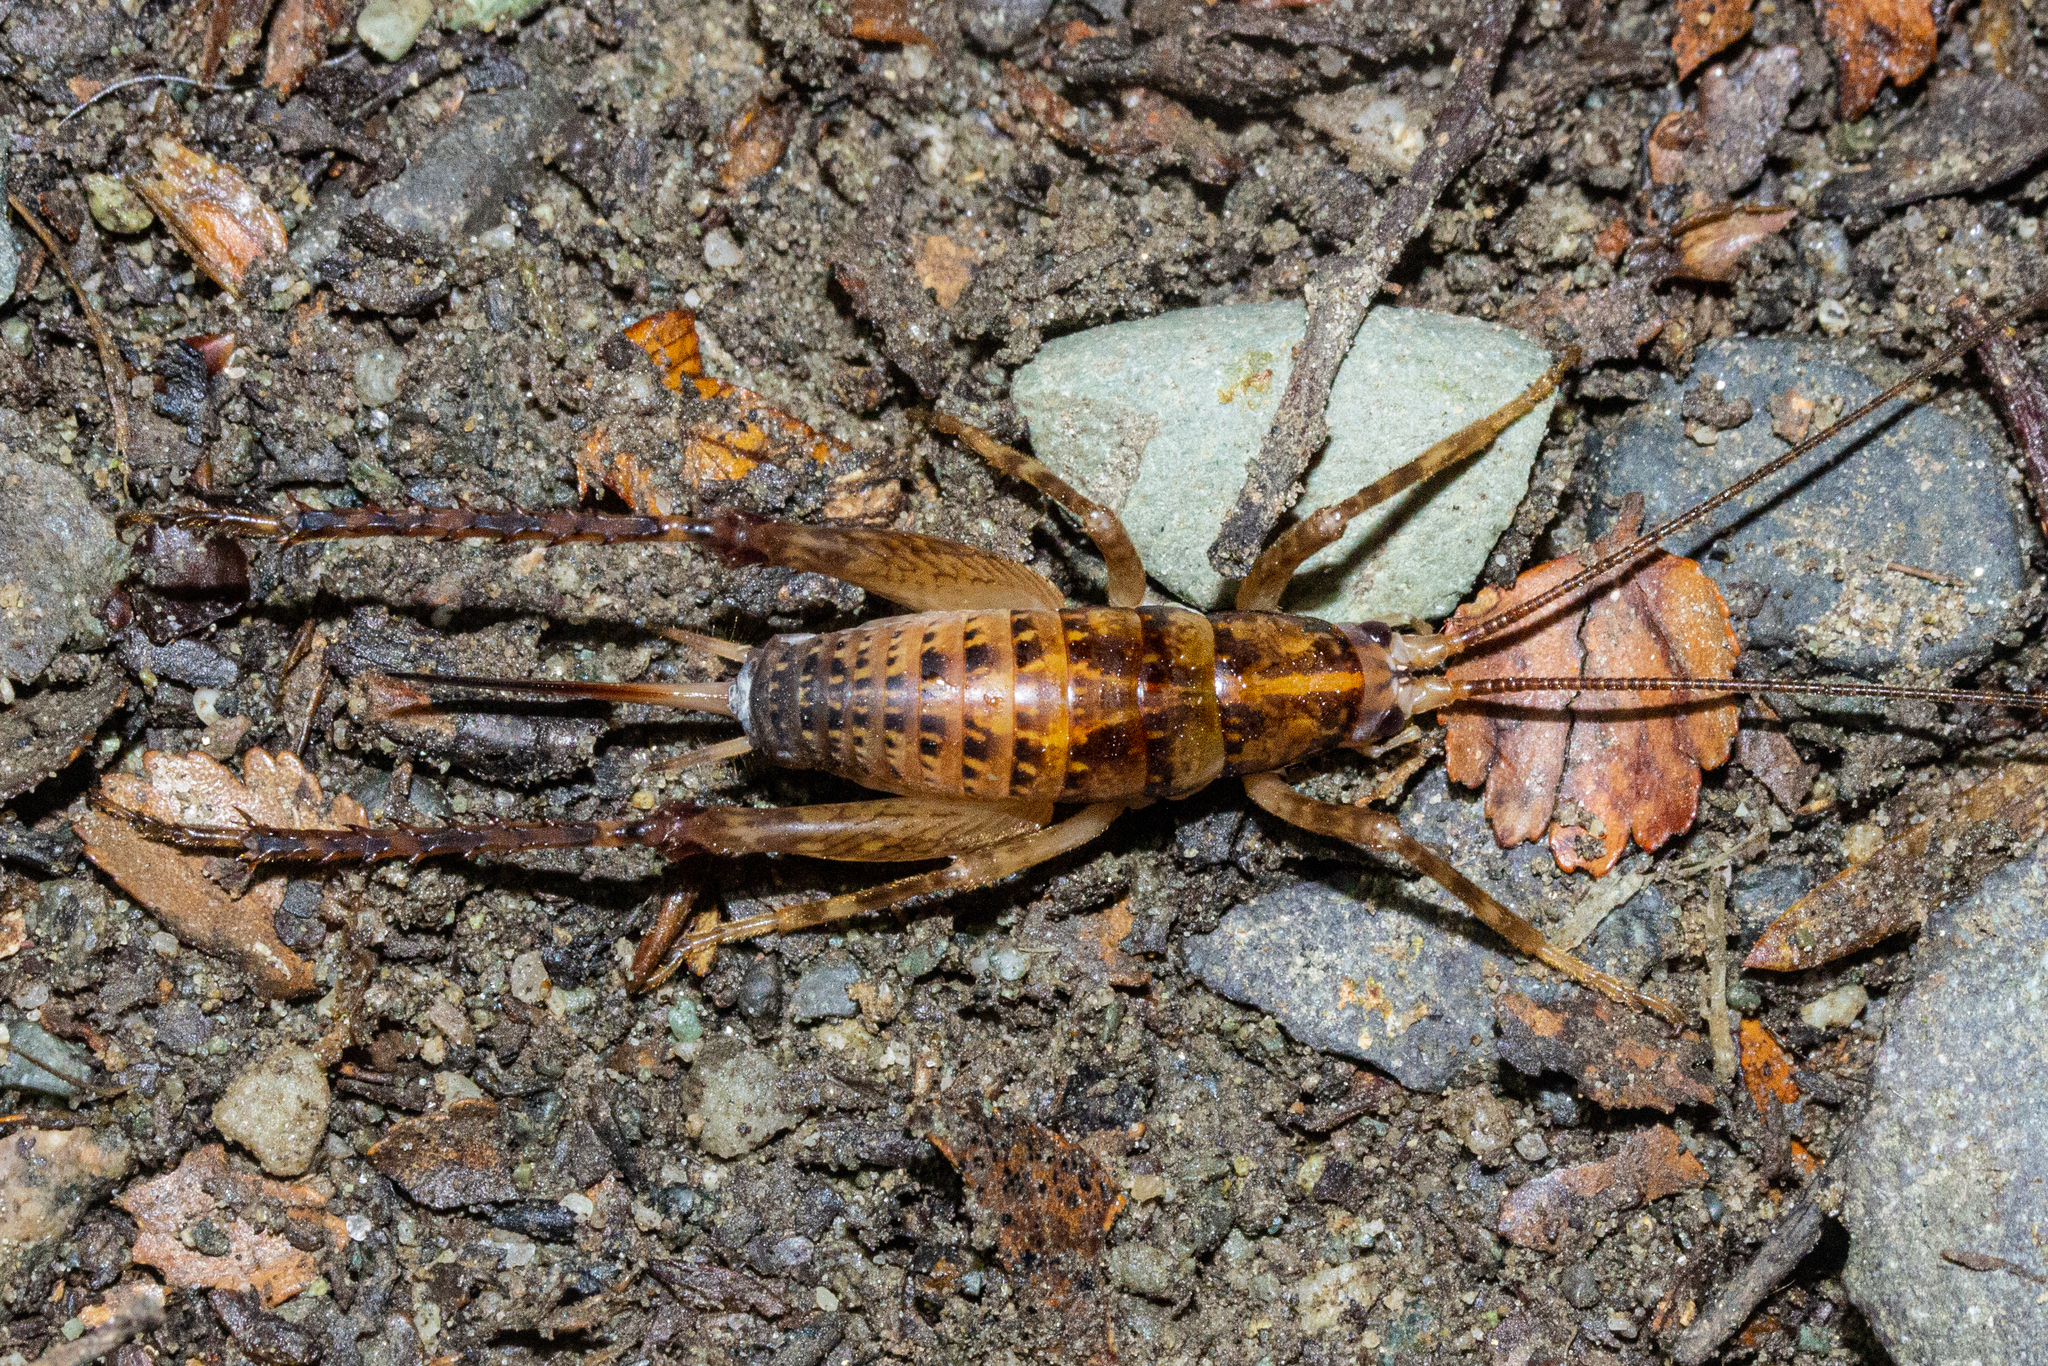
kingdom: Animalia
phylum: Arthropoda
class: Insecta
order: Orthoptera
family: Rhaphidophoridae
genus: Talitropsis
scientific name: Talitropsis sedilloti
